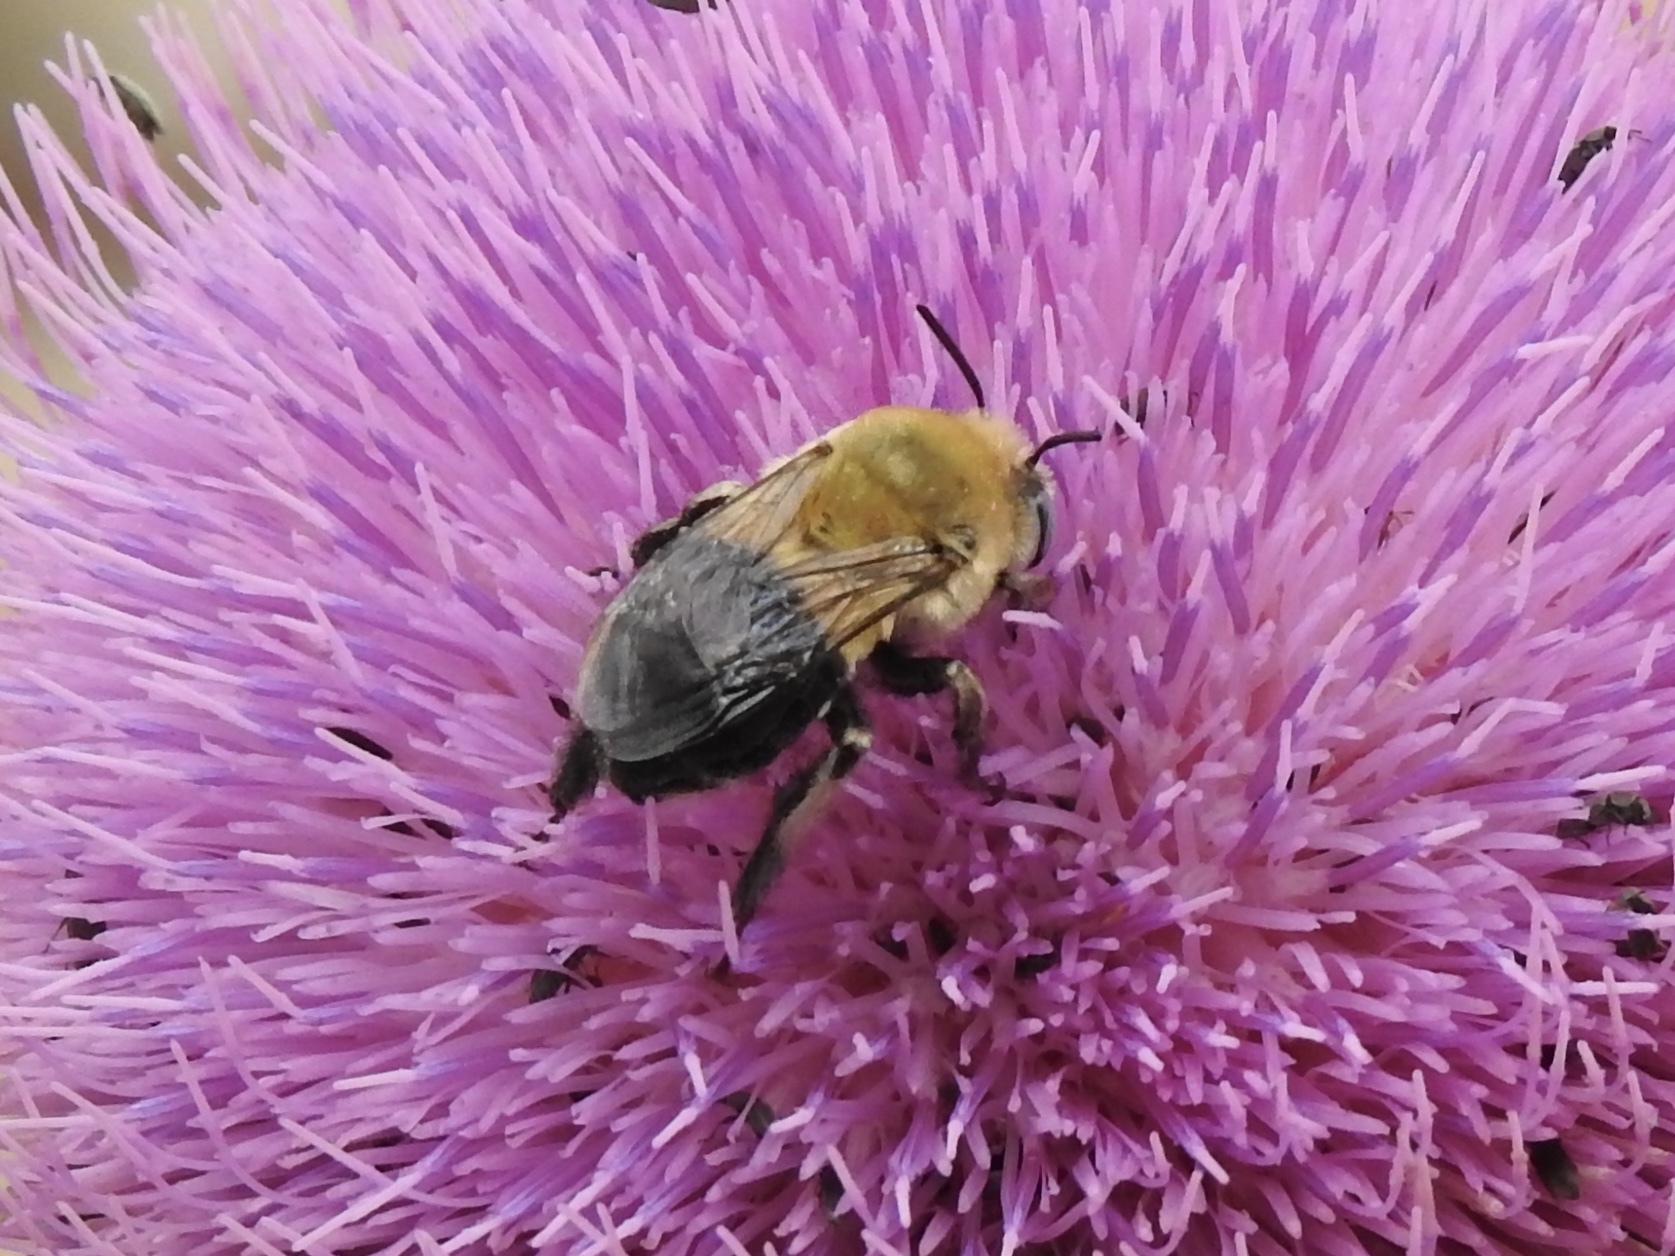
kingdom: Animalia
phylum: Arthropoda
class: Insecta
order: Hymenoptera
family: Apidae
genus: Anthophora
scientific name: Anthophora montana
